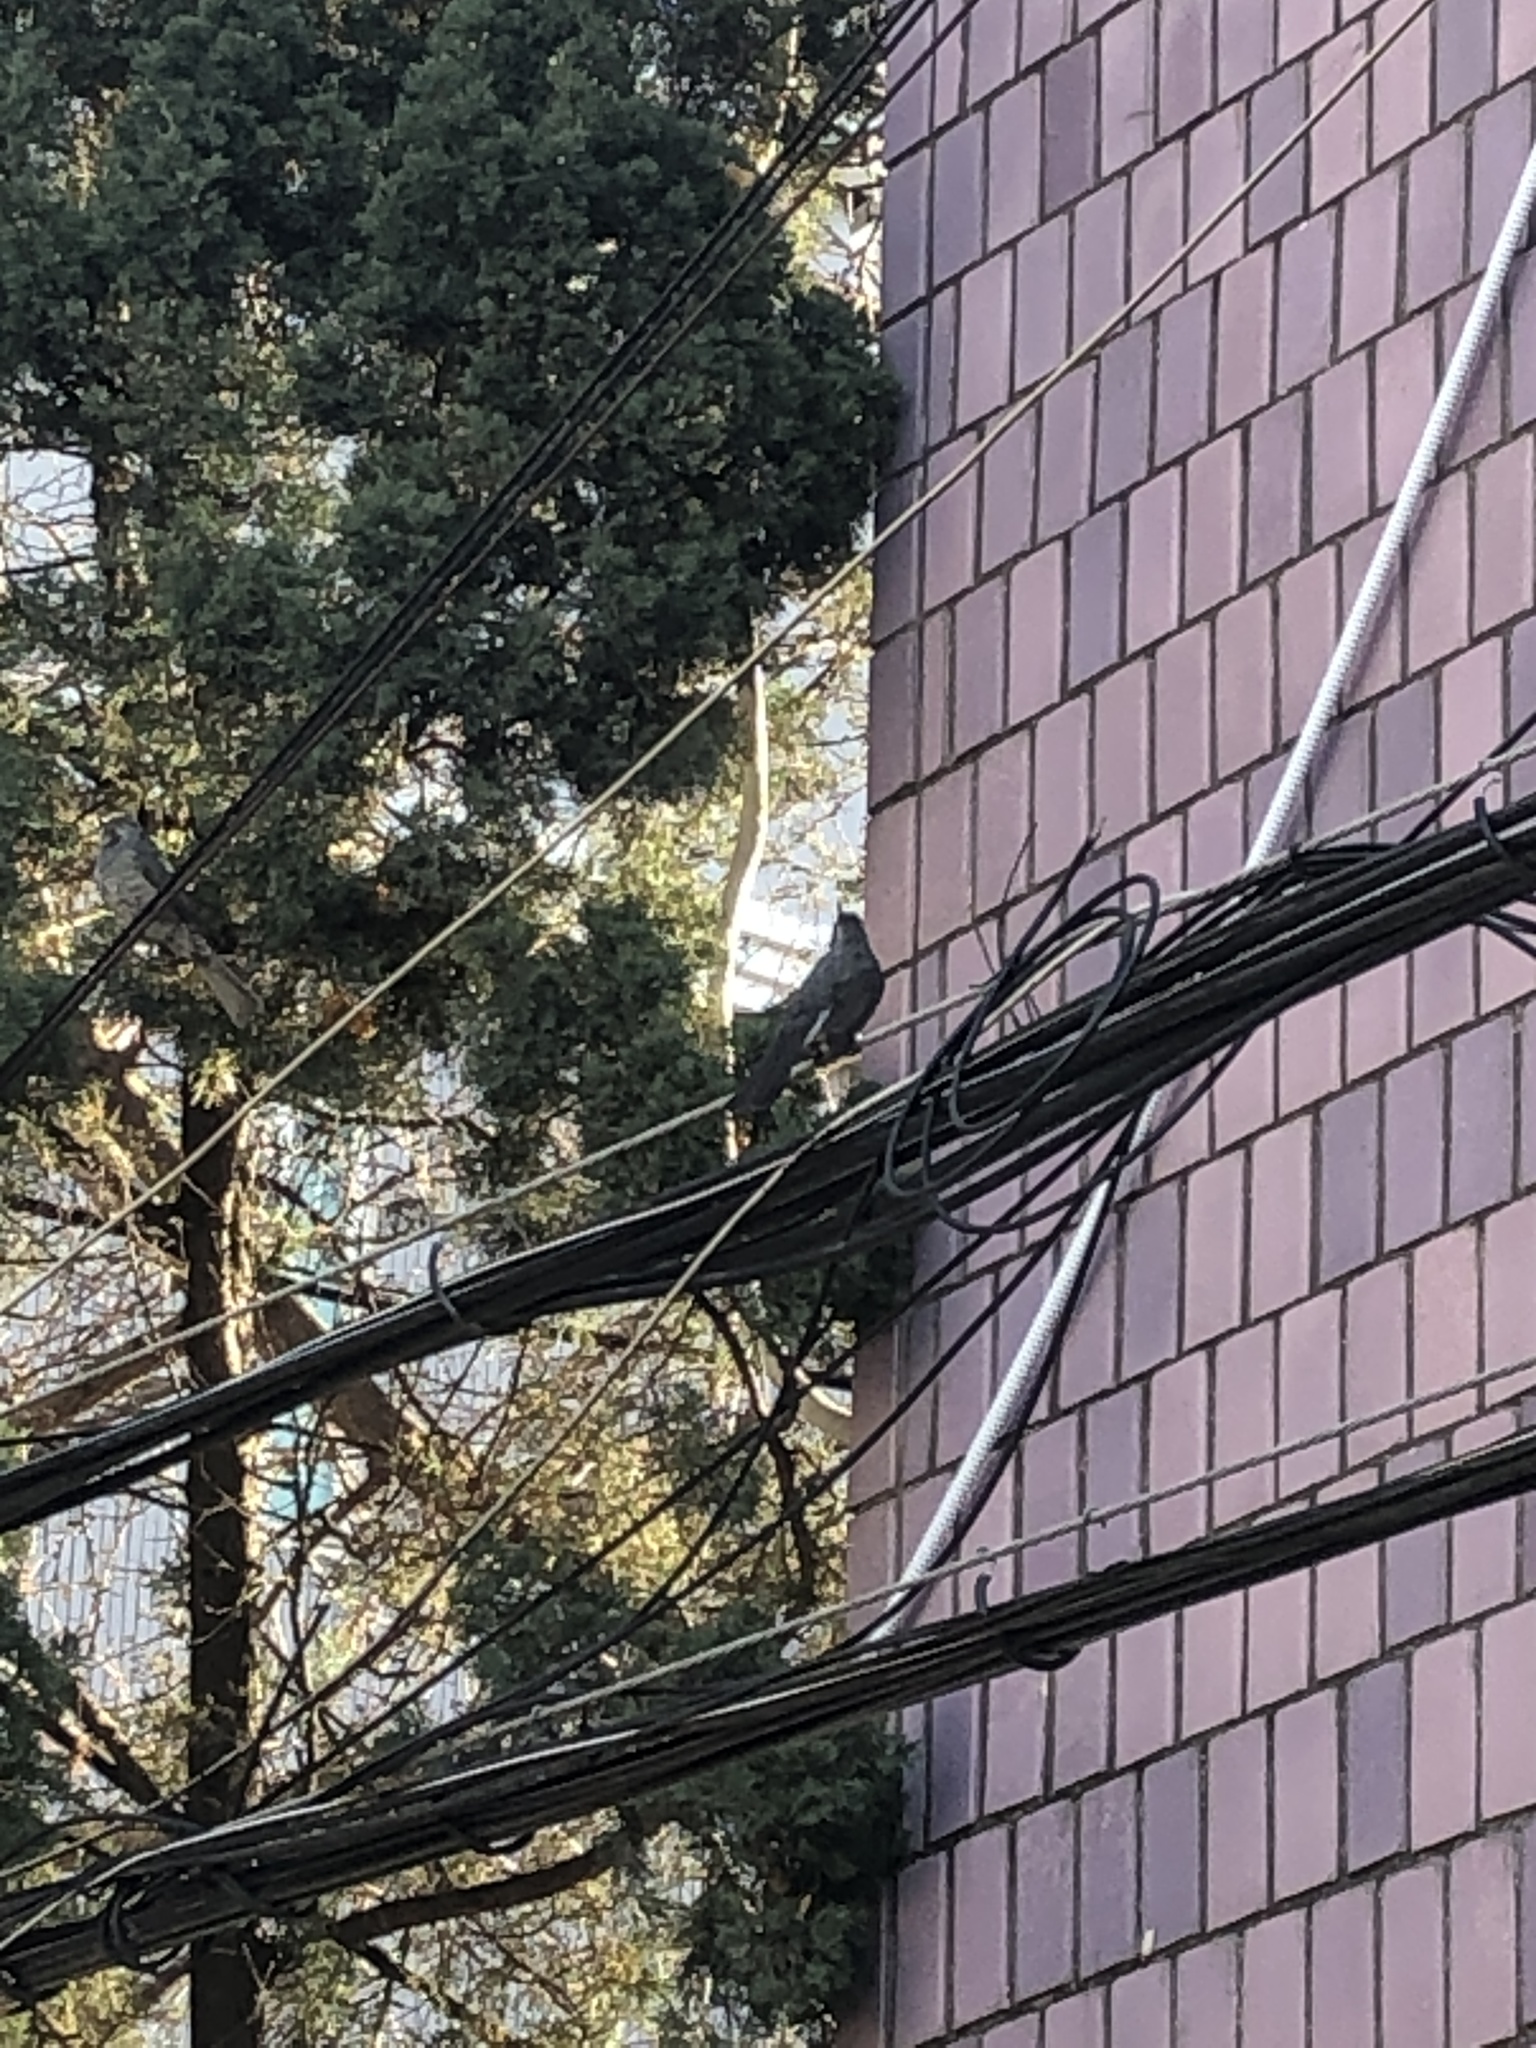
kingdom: Animalia
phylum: Chordata
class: Aves
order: Passeriformes
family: Pycnonotidae
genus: Hypsipetes
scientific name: Hypsipetes amaurotis
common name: Brown-eared bulbul
